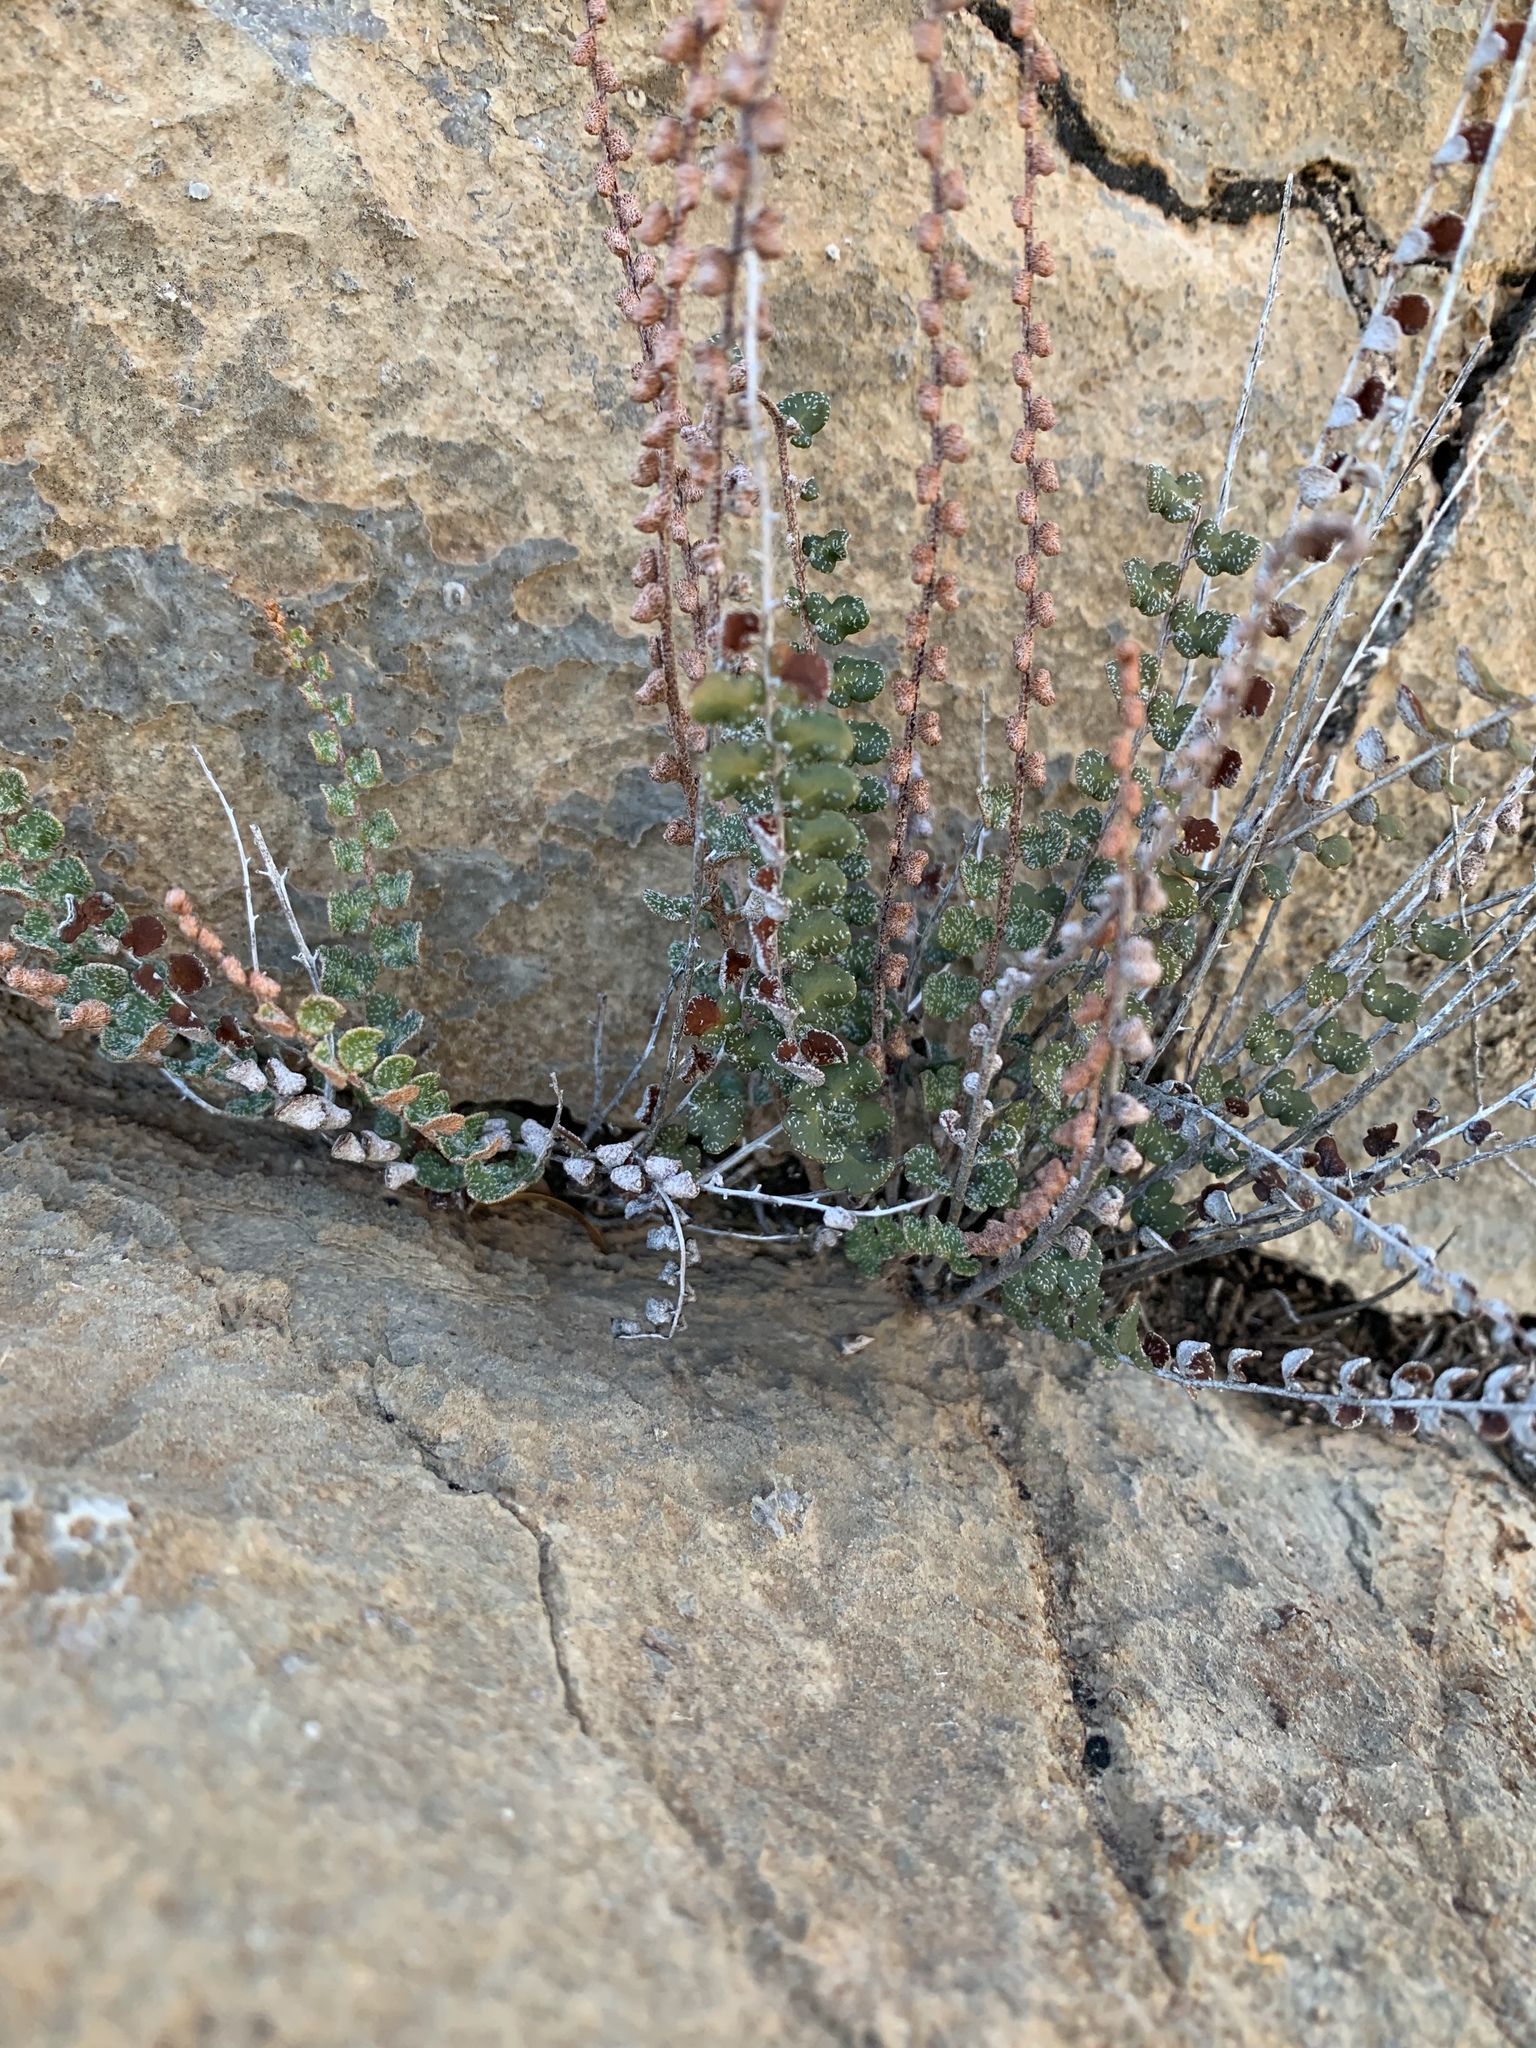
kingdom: Plantae
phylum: Tracheophyta
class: Polypodiopsida
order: Polypodiales
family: Pteridaceae
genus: Astrolepis
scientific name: Astrolepis cochisensis
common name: Scaly cloak fern
